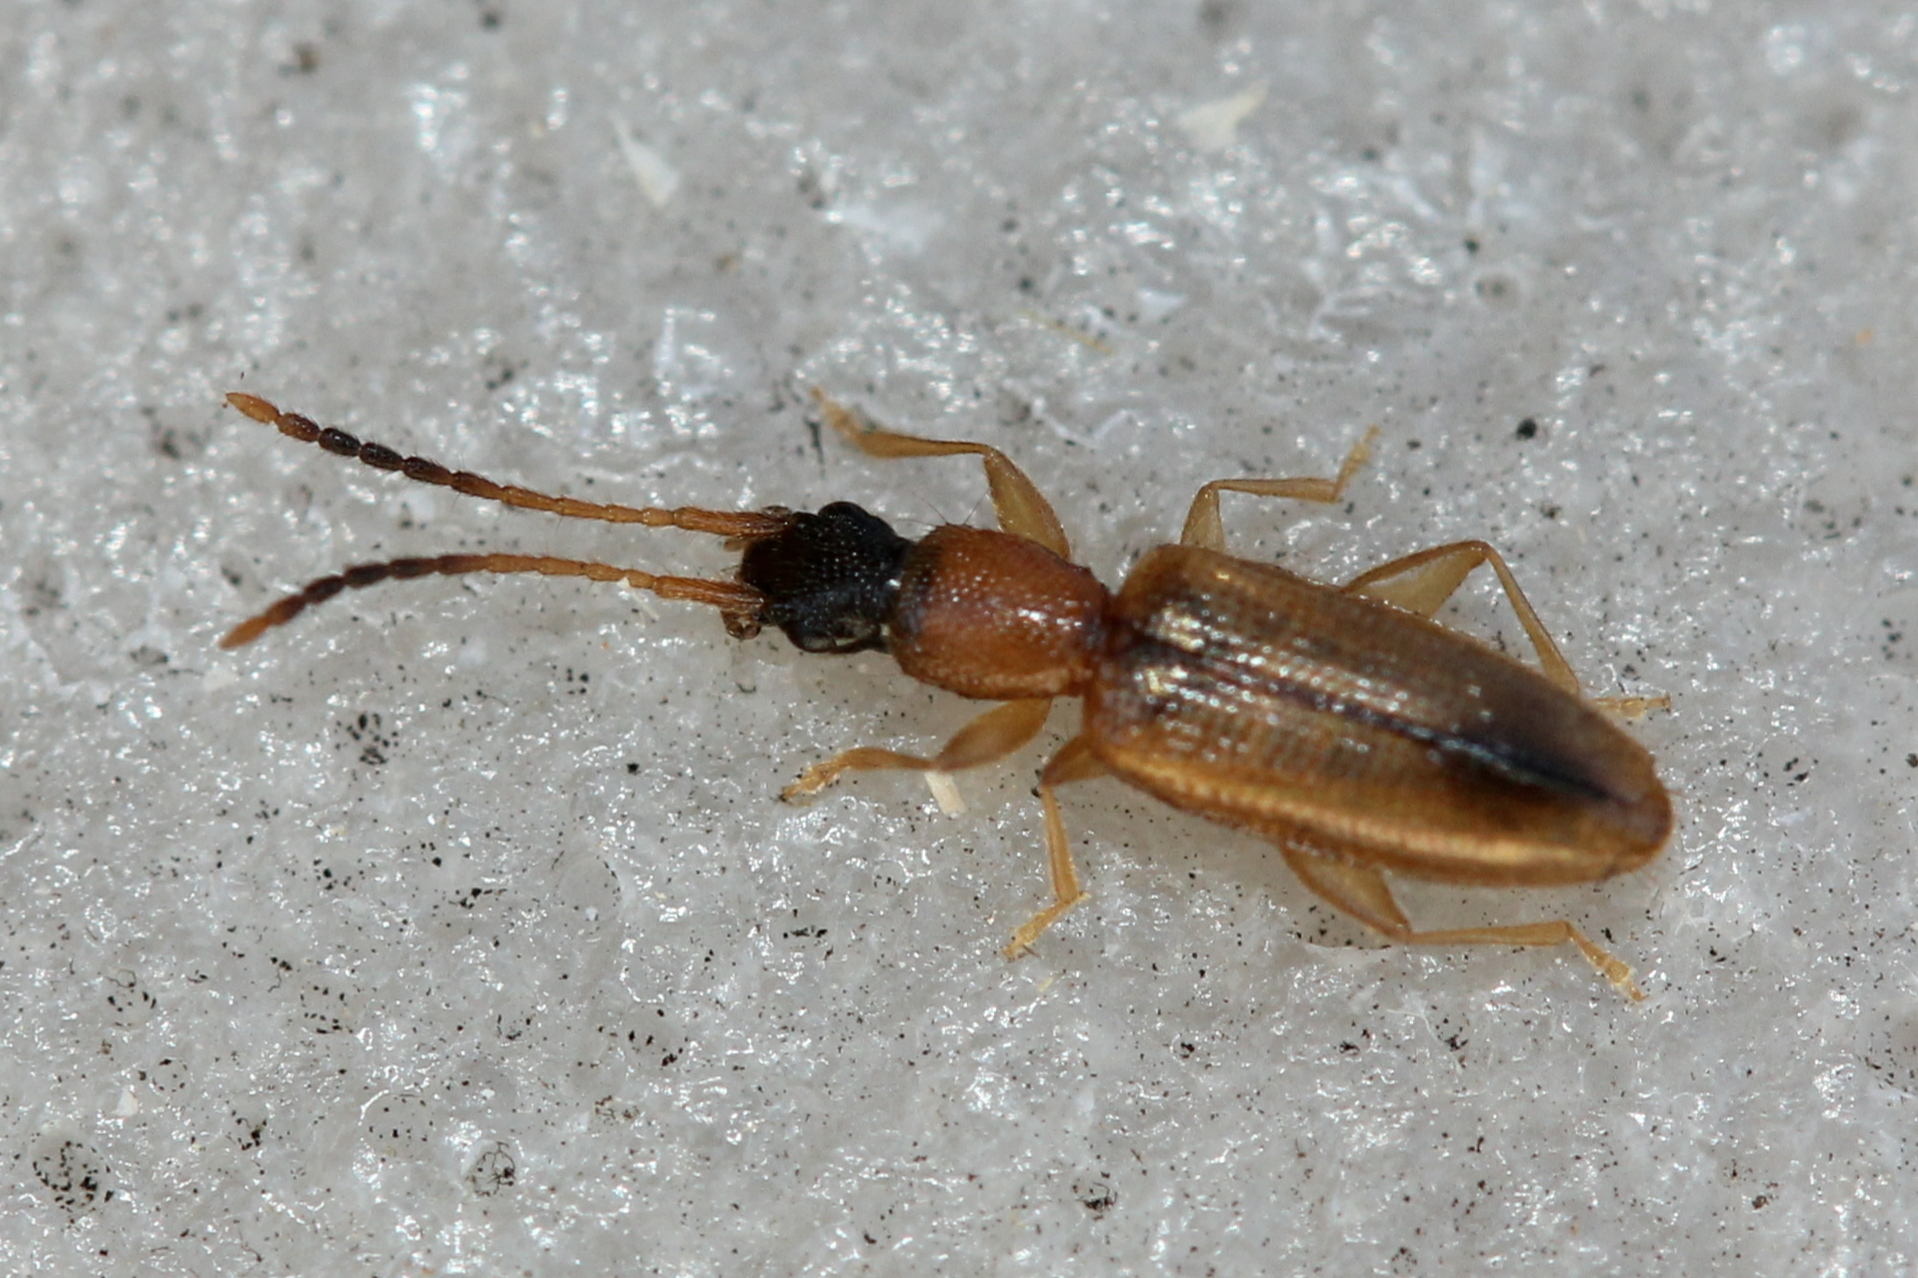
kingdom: Animalia
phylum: Arthropoda
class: Insecta
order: Coleoptera
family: Silvanidae
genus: Telephanus
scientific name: Telephanus velox
